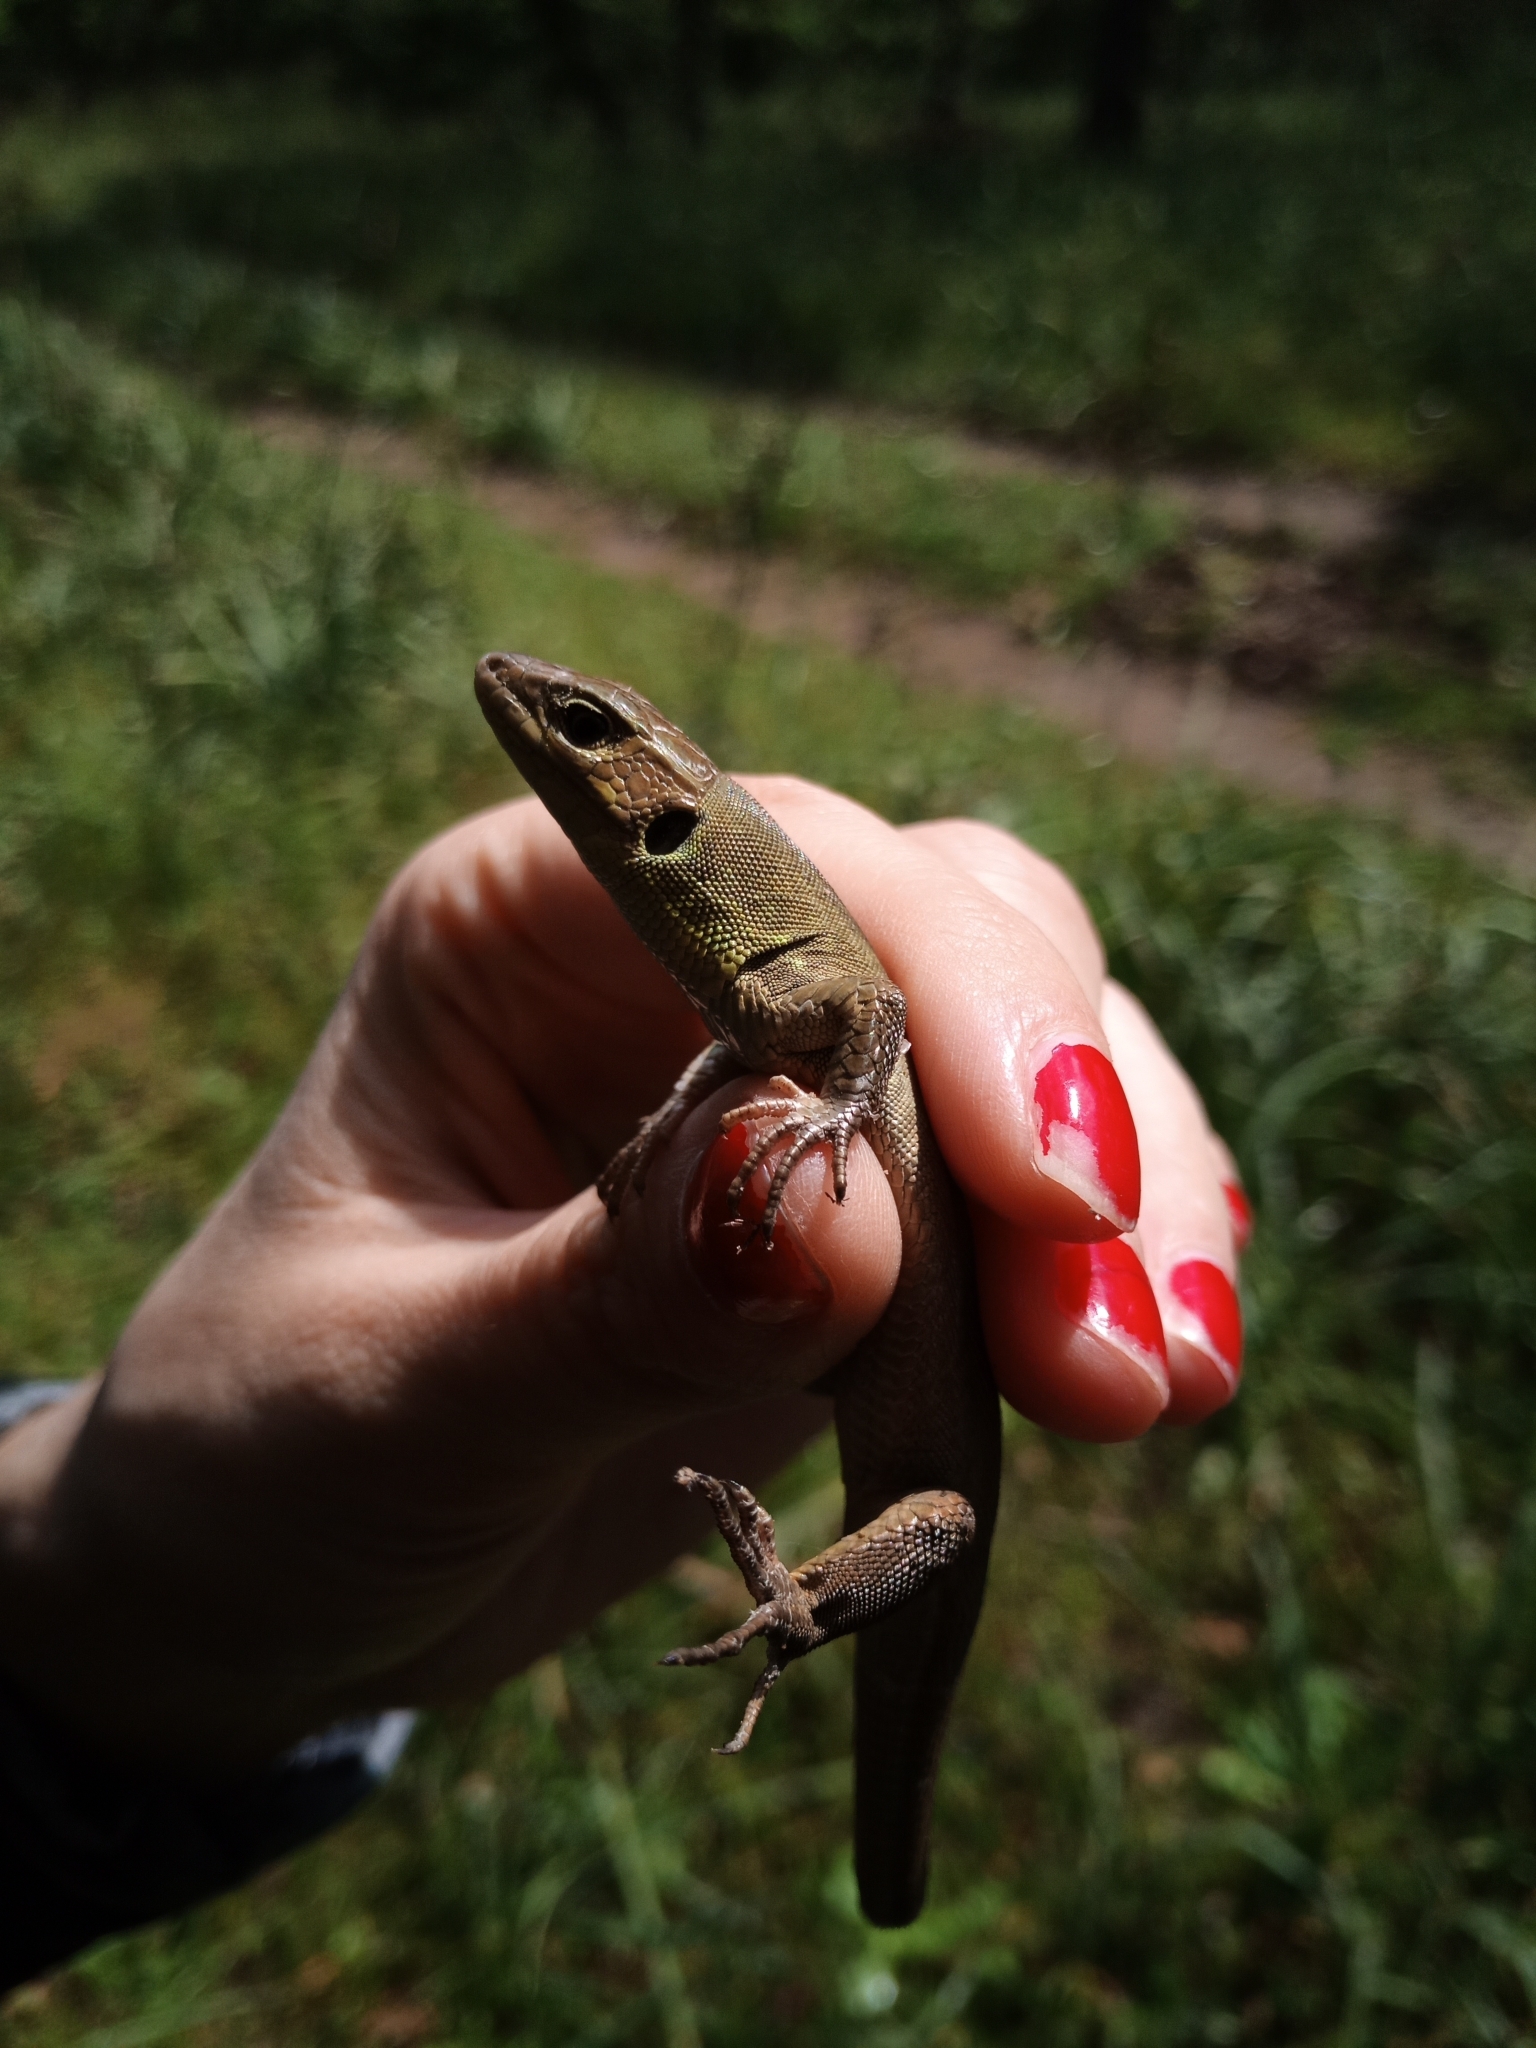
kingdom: Animalia
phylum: Chordata
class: Squamata
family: Lacertidae
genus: Lacerta
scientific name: Lacerta trilineata
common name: Balkan green lizard
